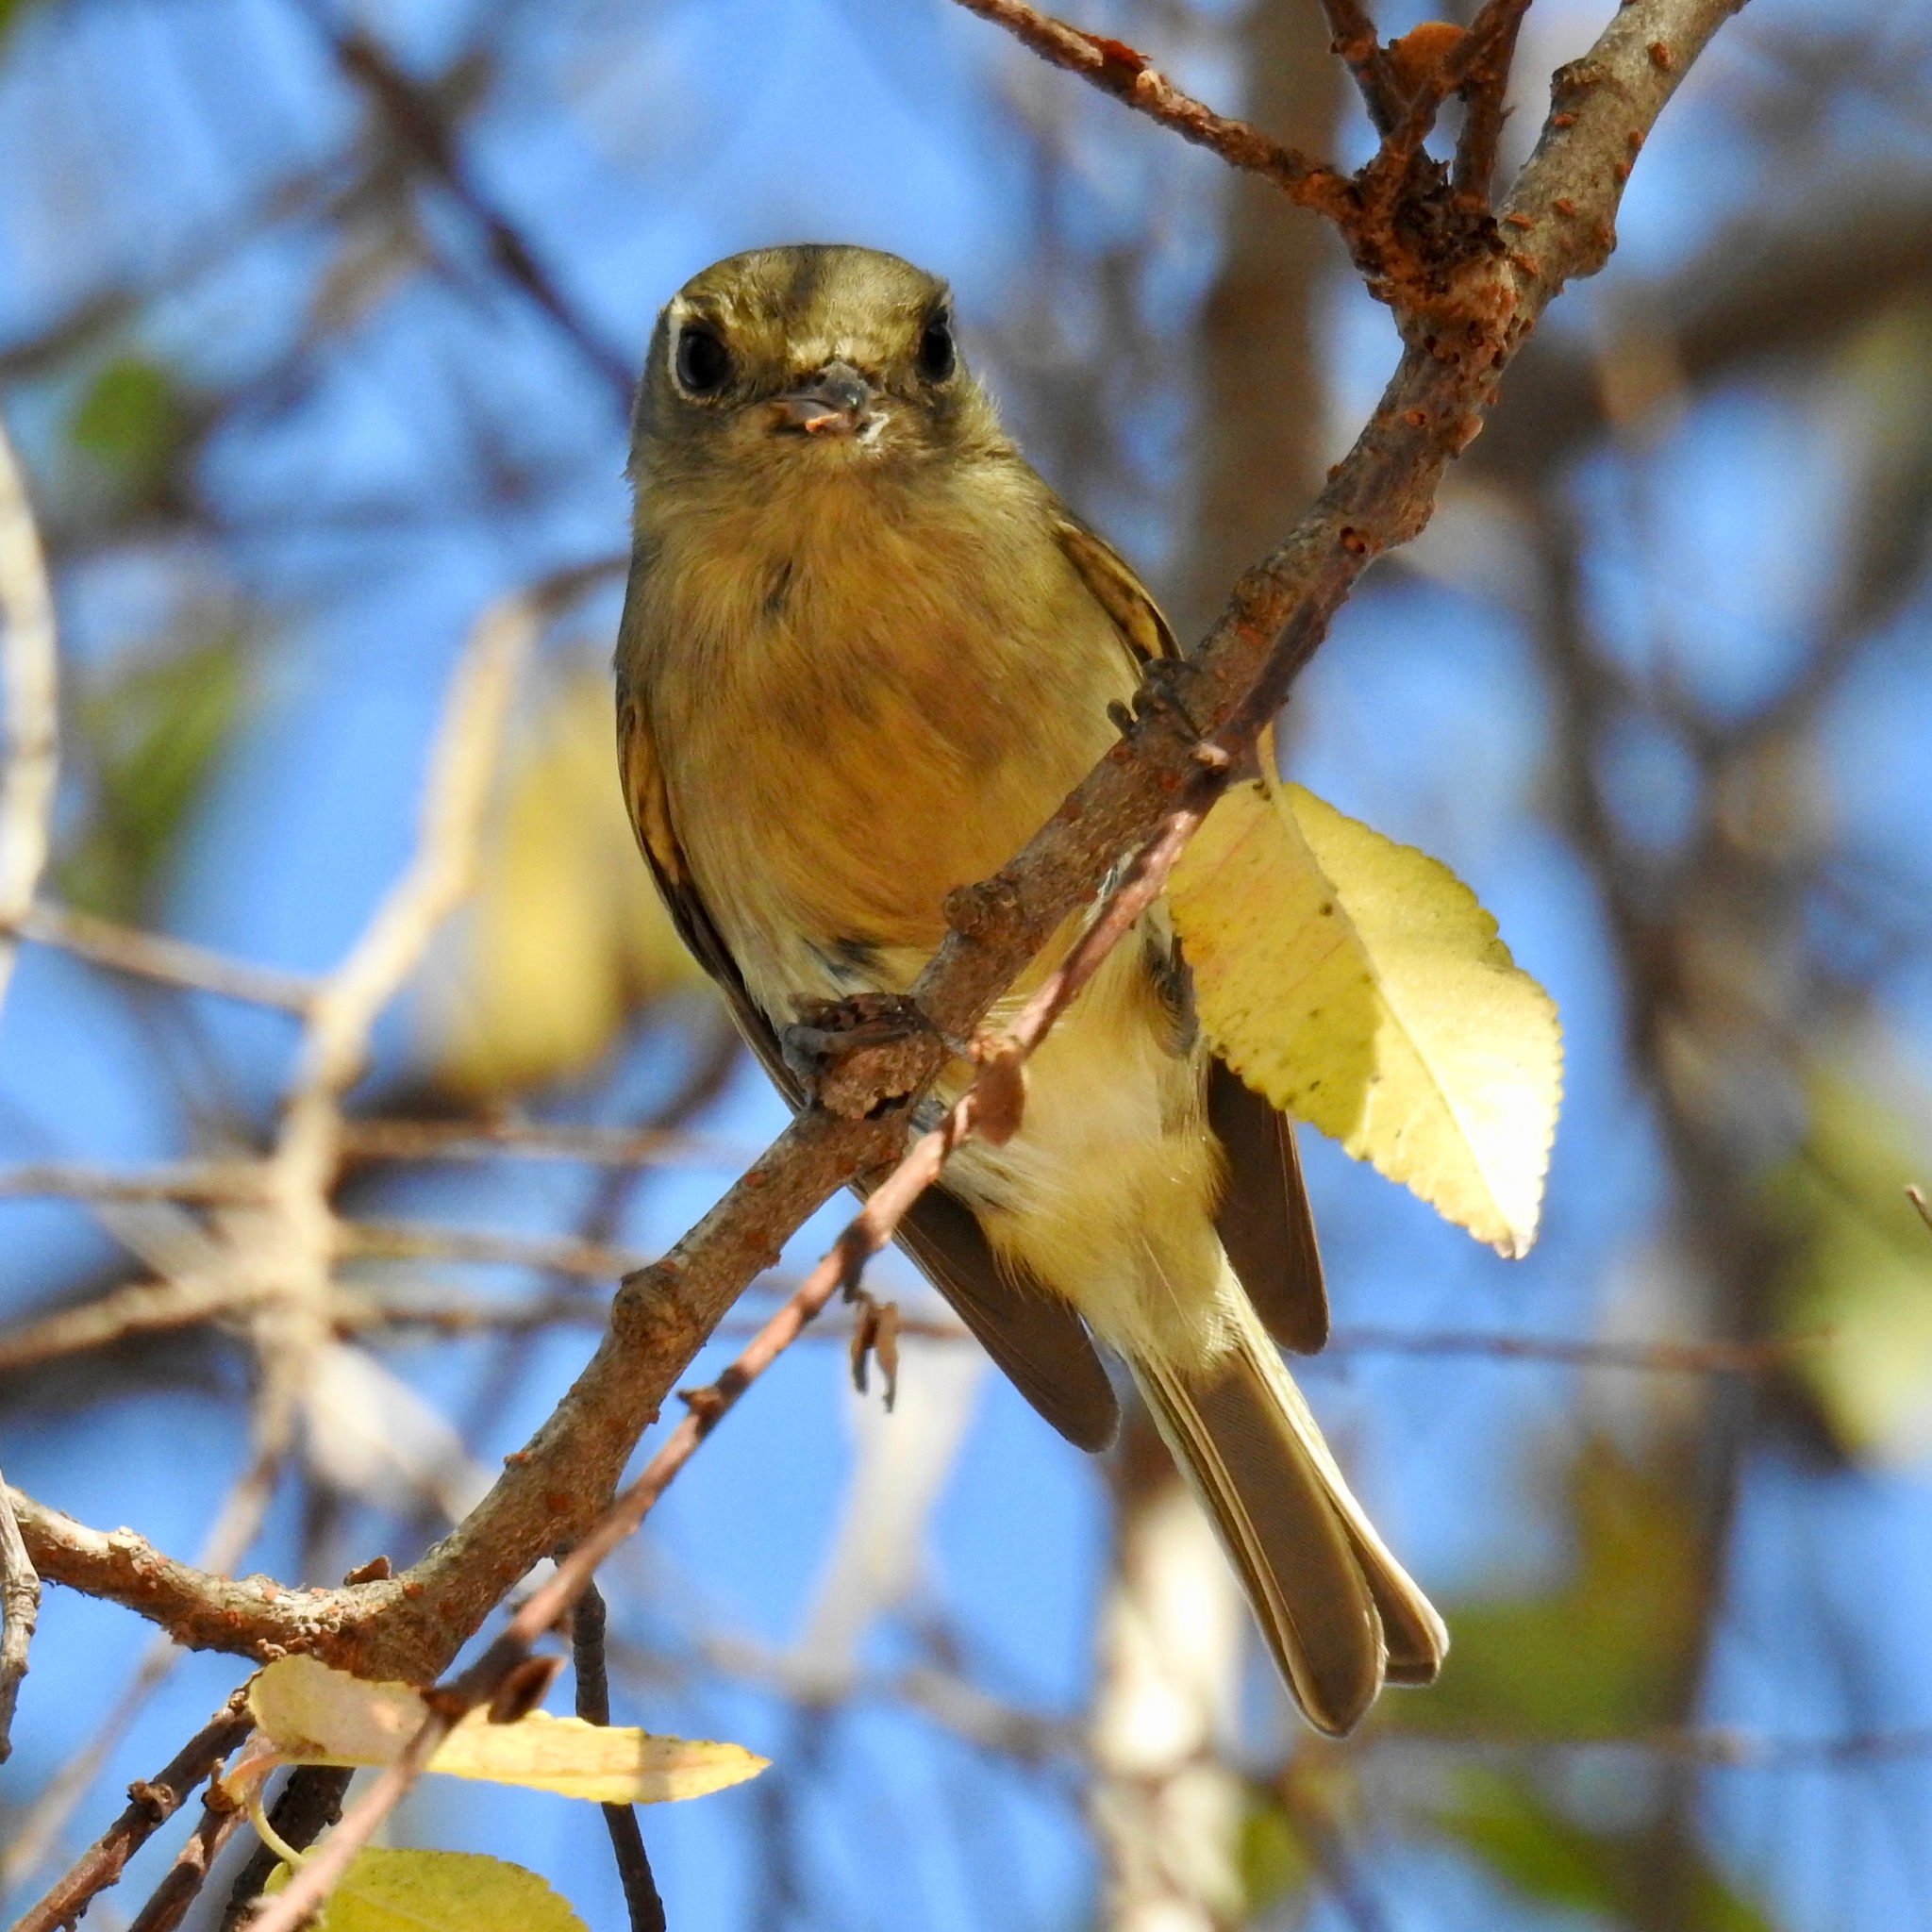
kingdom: Animalia
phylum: Chordata
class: Aves
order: Passeriformes
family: Vireonidae
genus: Vireo
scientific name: Vireo huttoni
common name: Hutton's vireo
